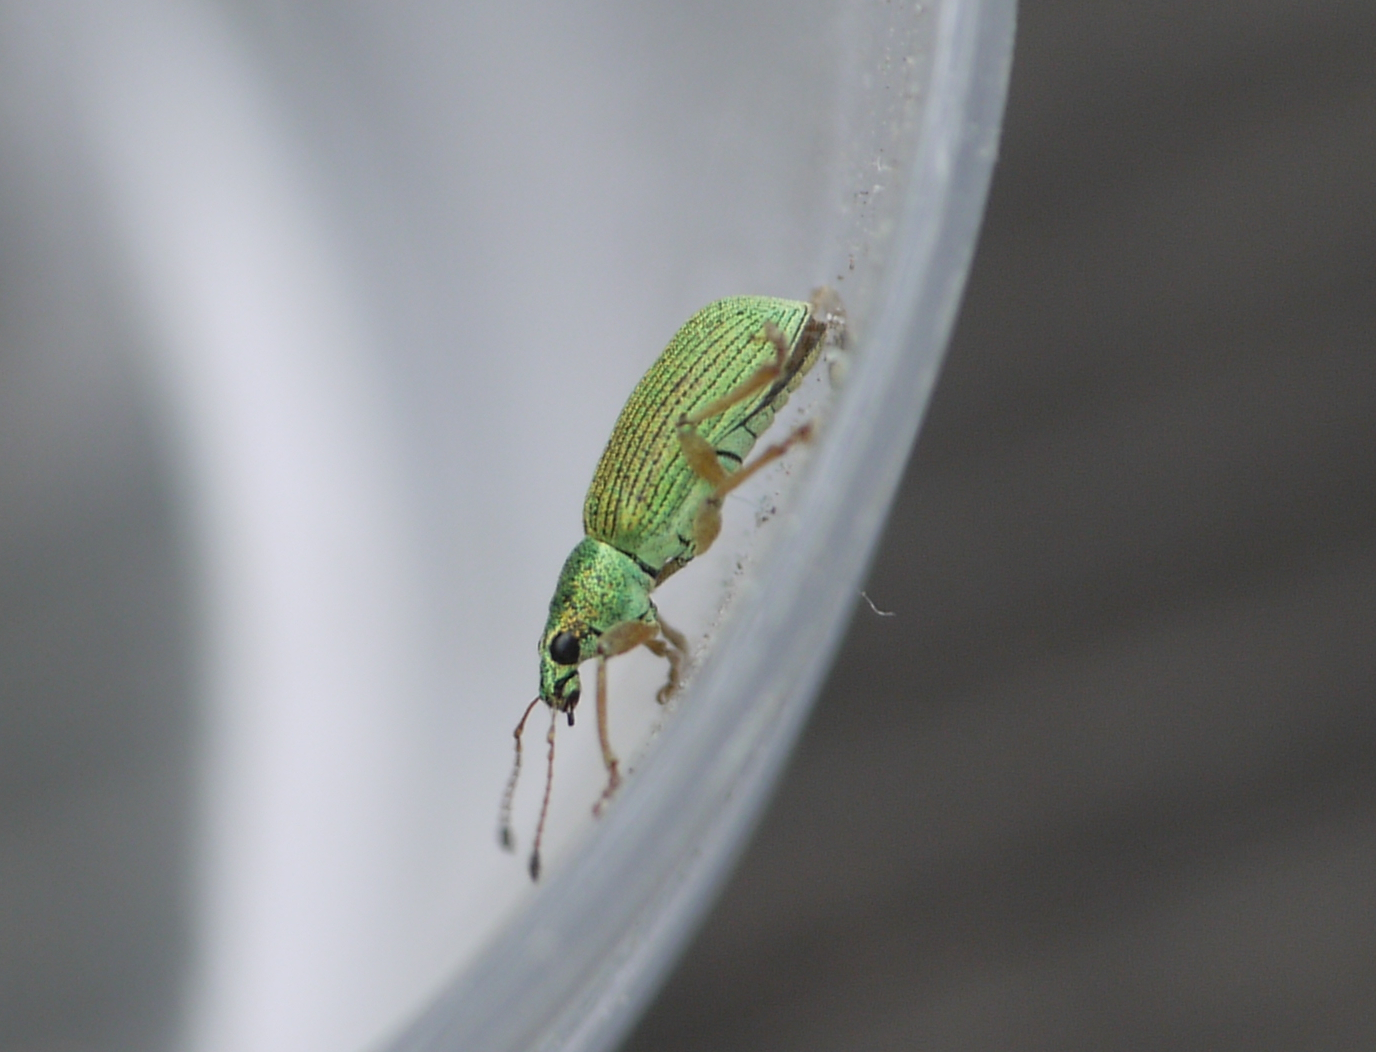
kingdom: Animalia
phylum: Arthropoda
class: Insecta
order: Coleoptera
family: Curculionidae
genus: Polydrusus
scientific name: Polydrusus formosus
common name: Weevil
